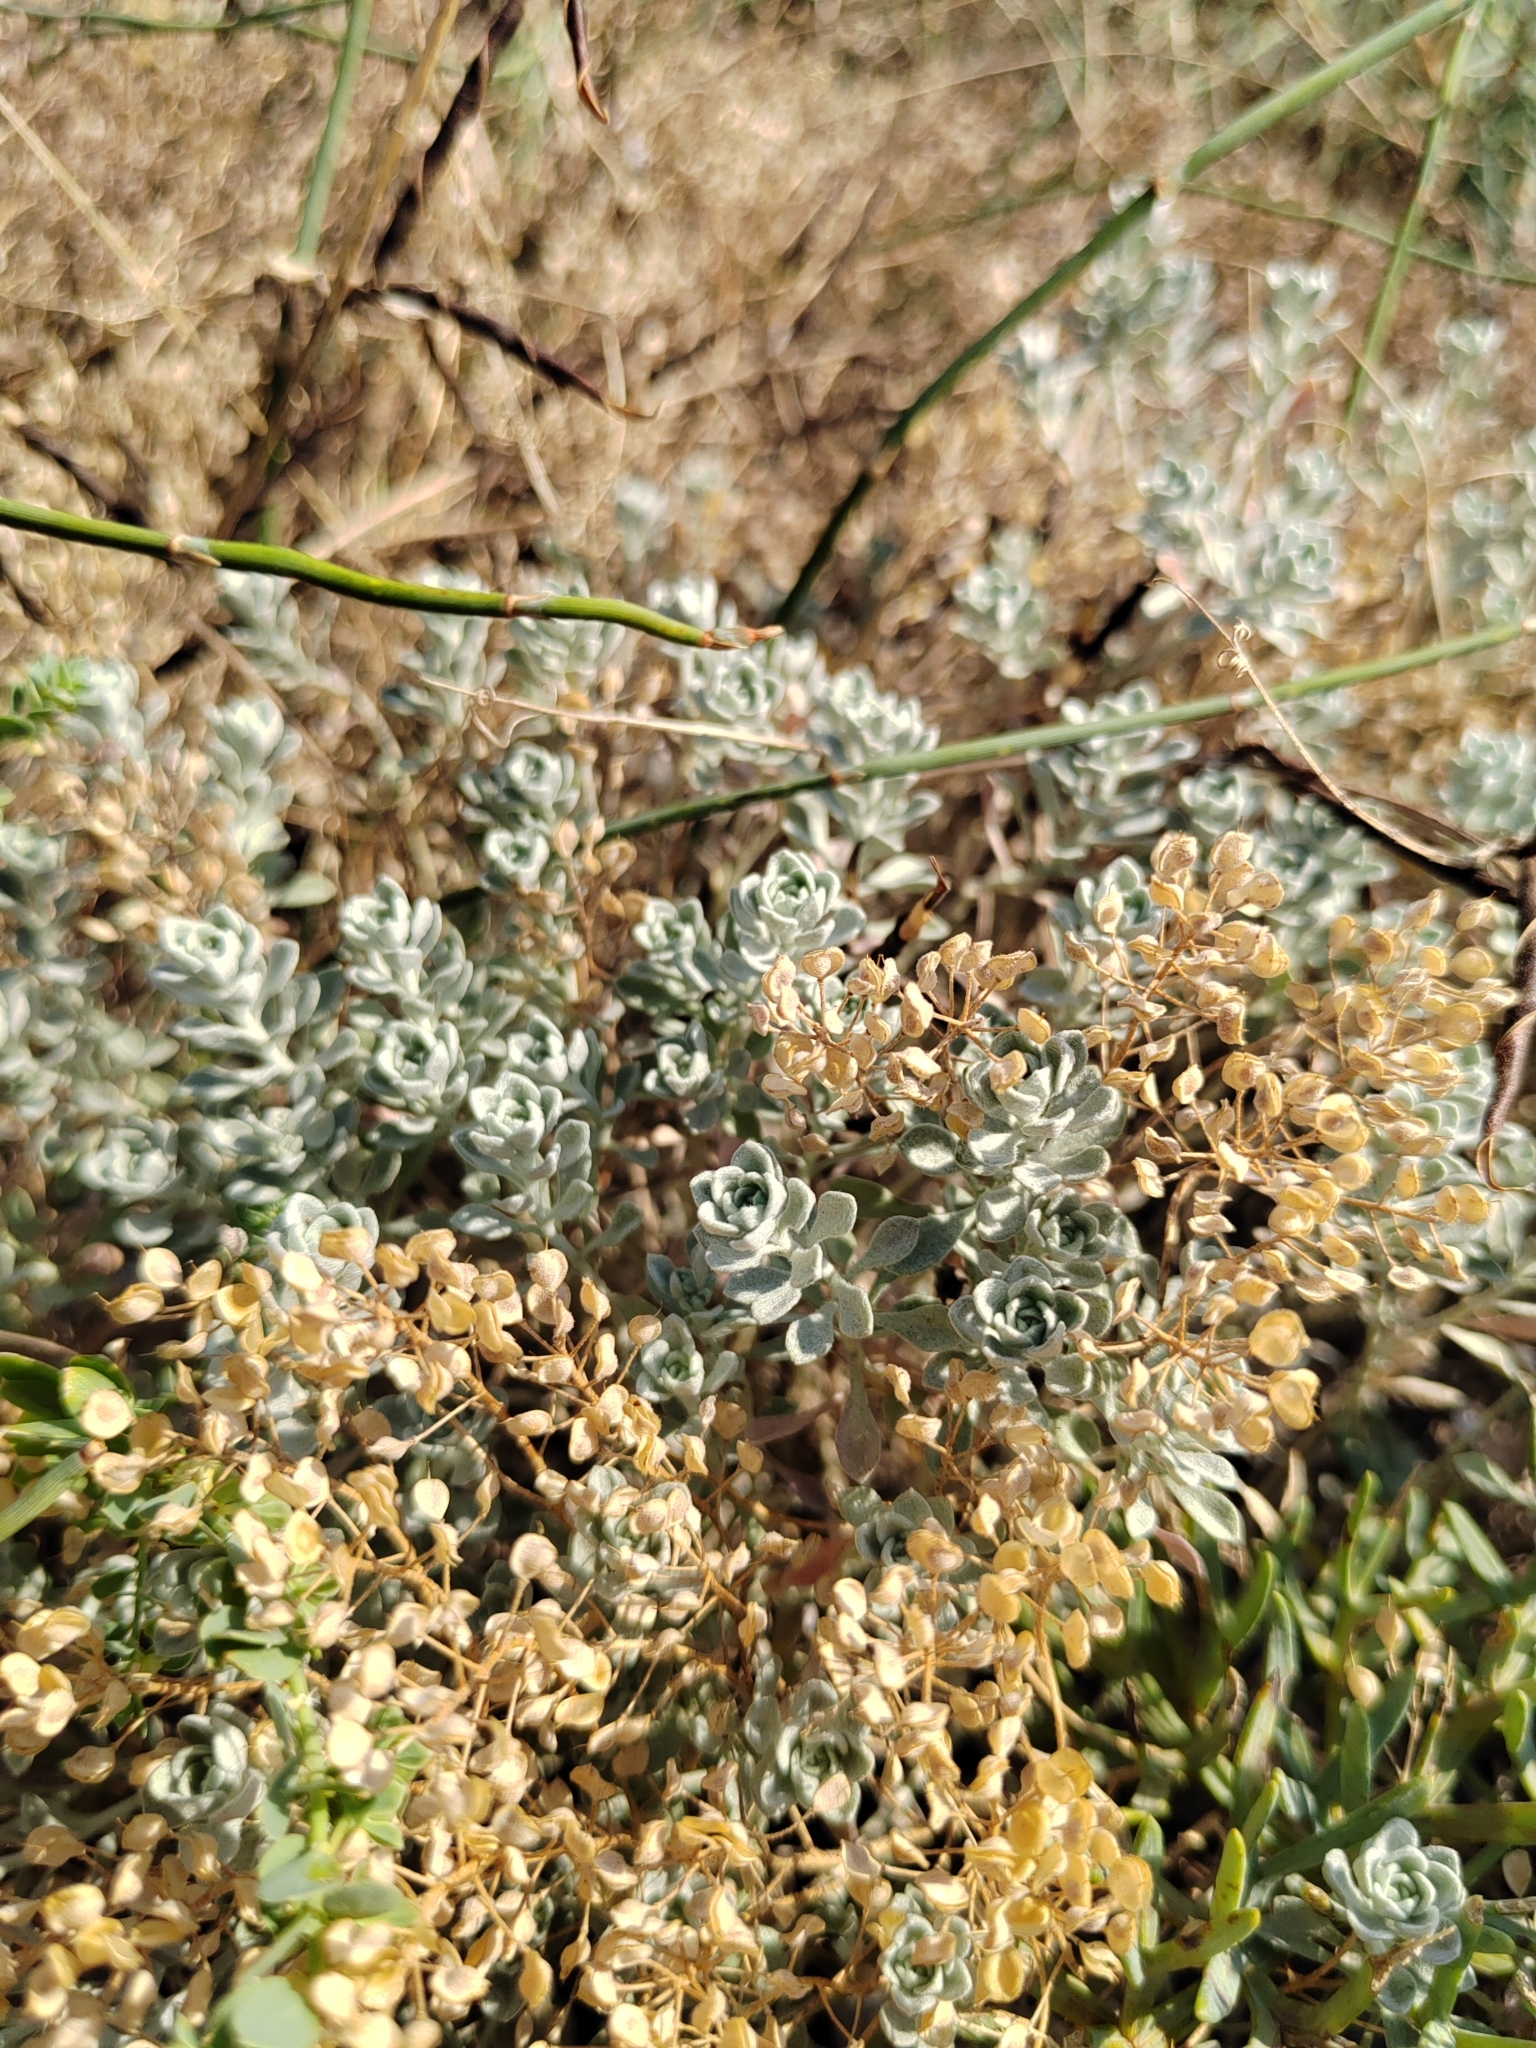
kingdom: Plantae
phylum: Tracheophyta
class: Magnoliopsida
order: Brassicales
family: Brassicaceae
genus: Odontarrhena
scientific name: Odontarrhena obtusifolia
